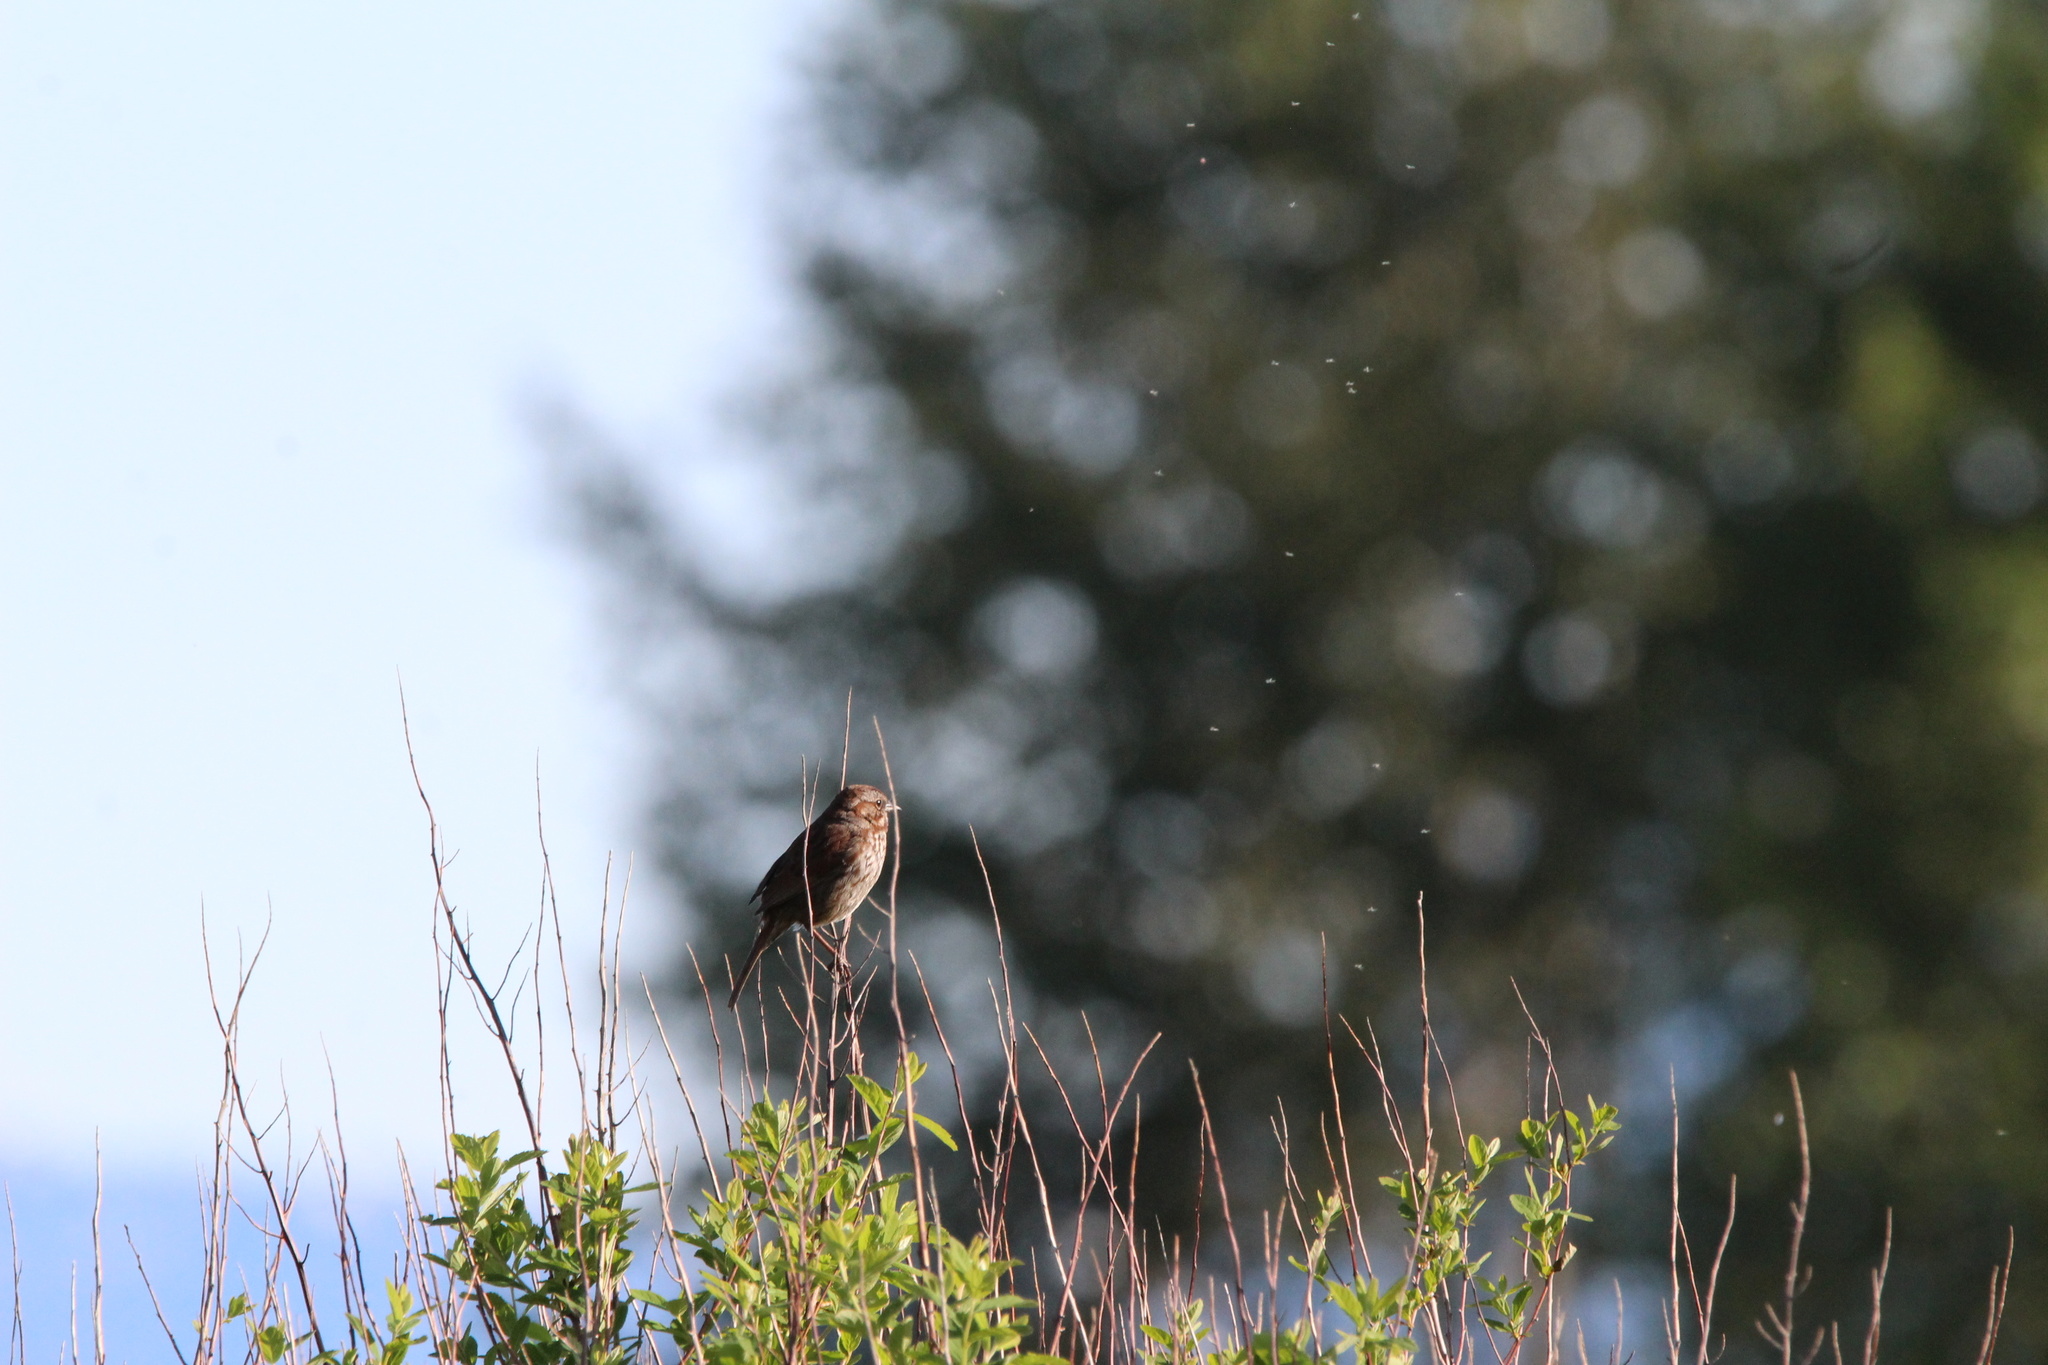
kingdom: Animalia
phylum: Chordata
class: Aves
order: Passeriformes
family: Passerellidae
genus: Melospiza
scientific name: Melospiza melodia
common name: Song sparrow
